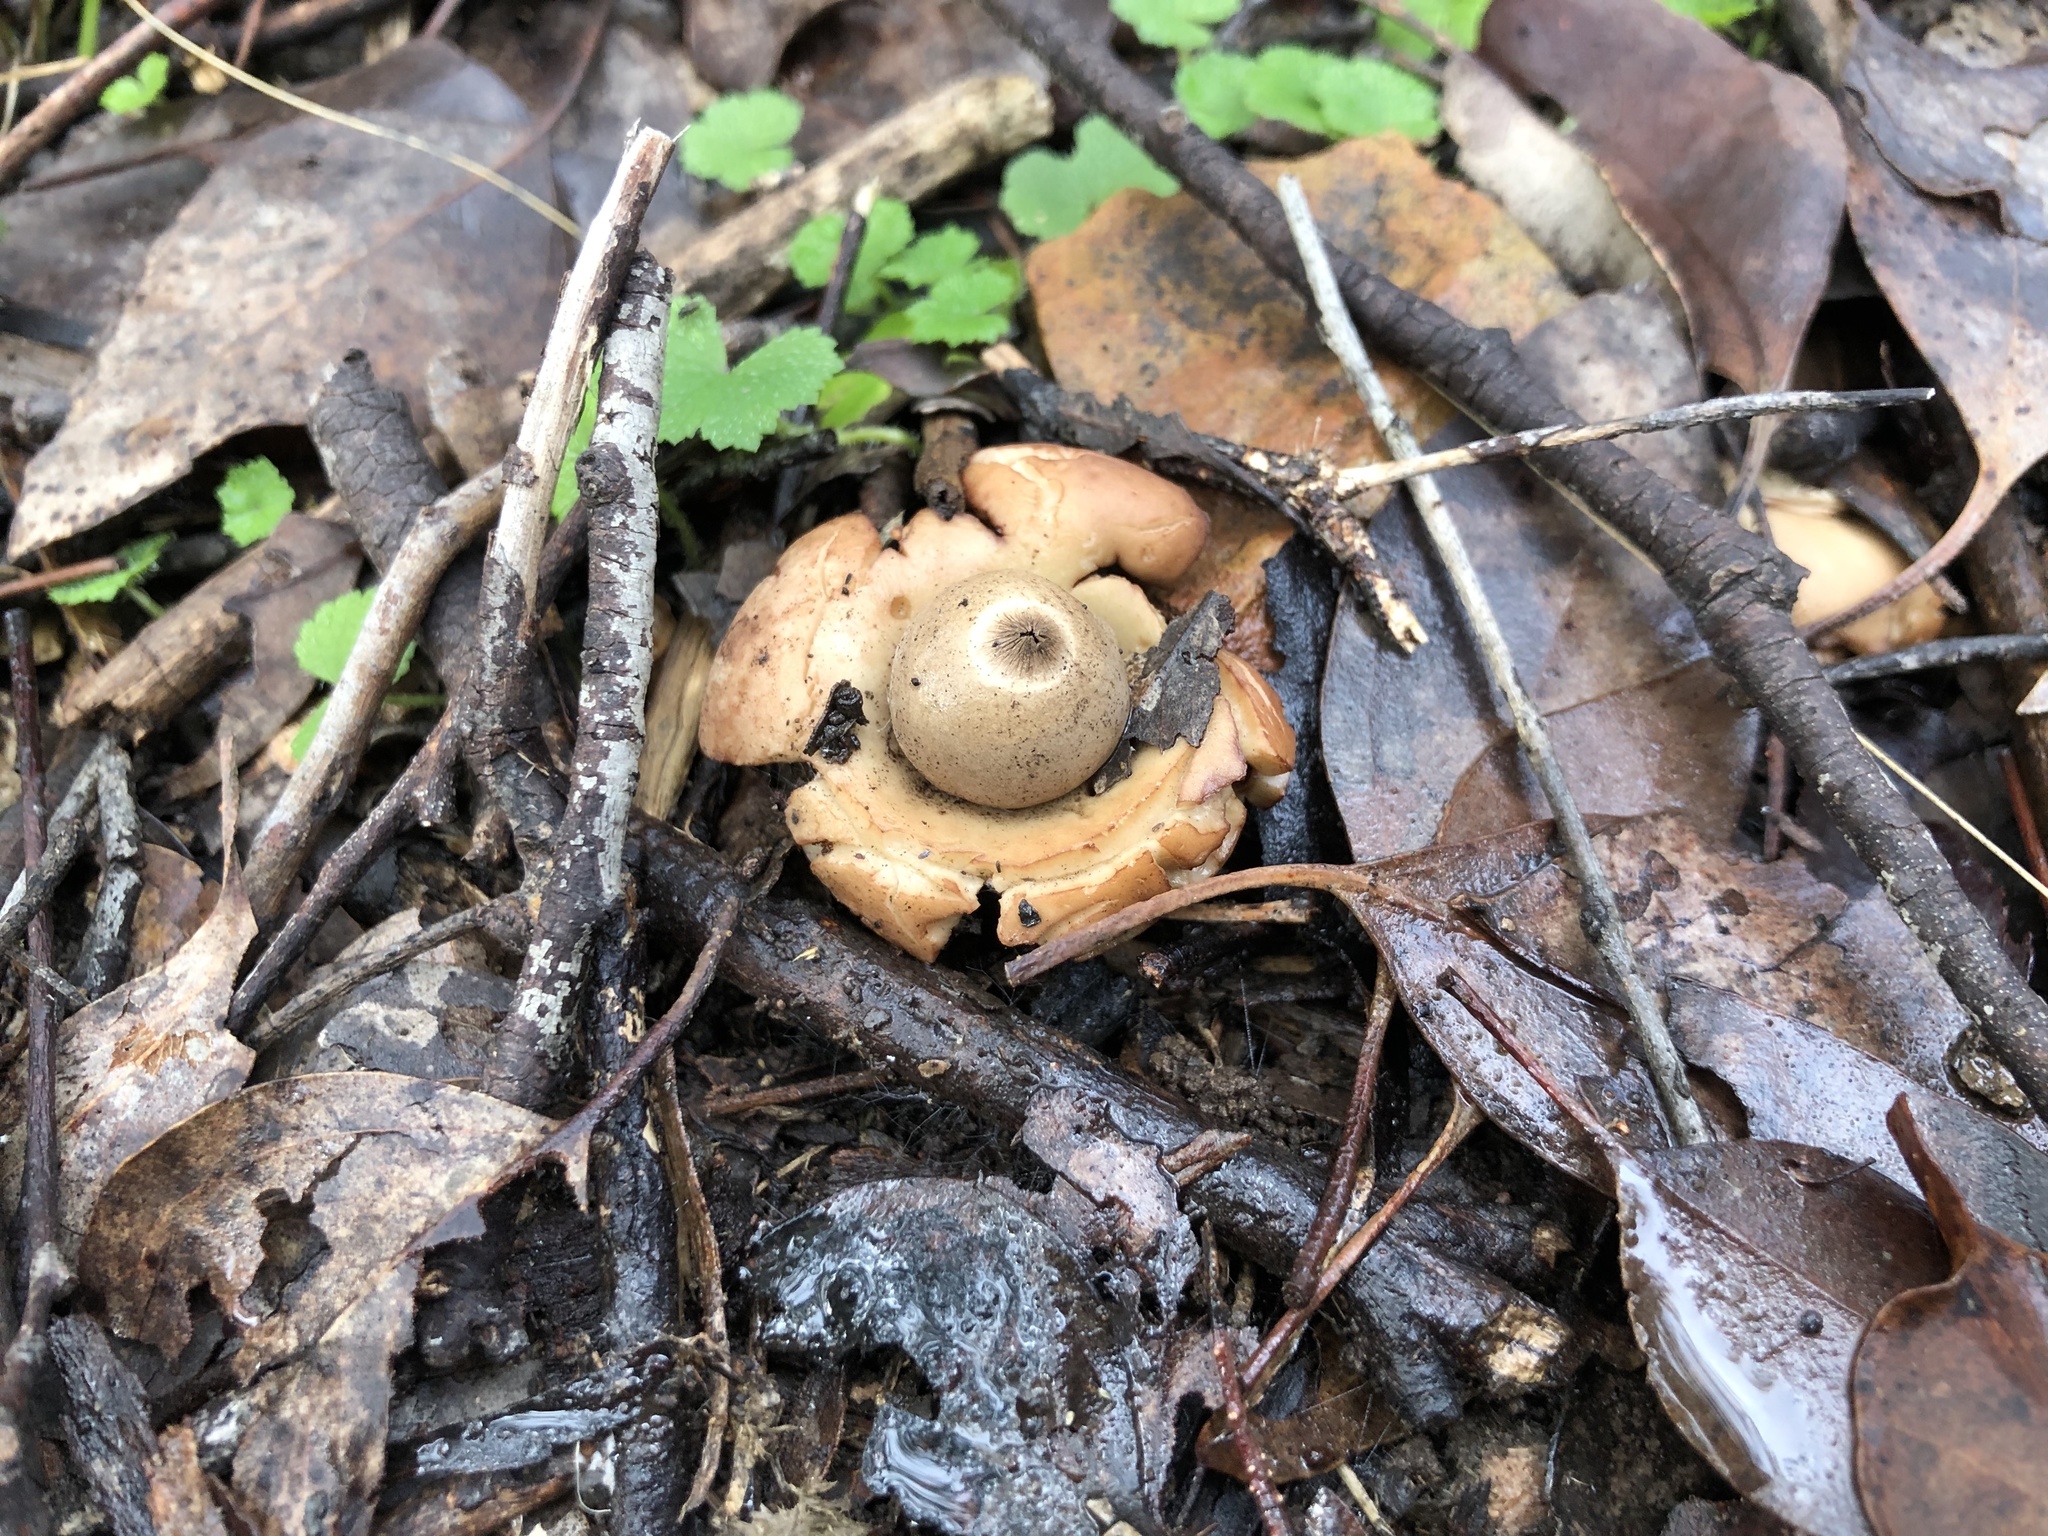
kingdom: Fungi
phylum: Basidiomycota
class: Agaricomycetes
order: Geastrales
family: Geastraceae
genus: Geastrum
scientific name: Geastrum triplex
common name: Collared earthstar
